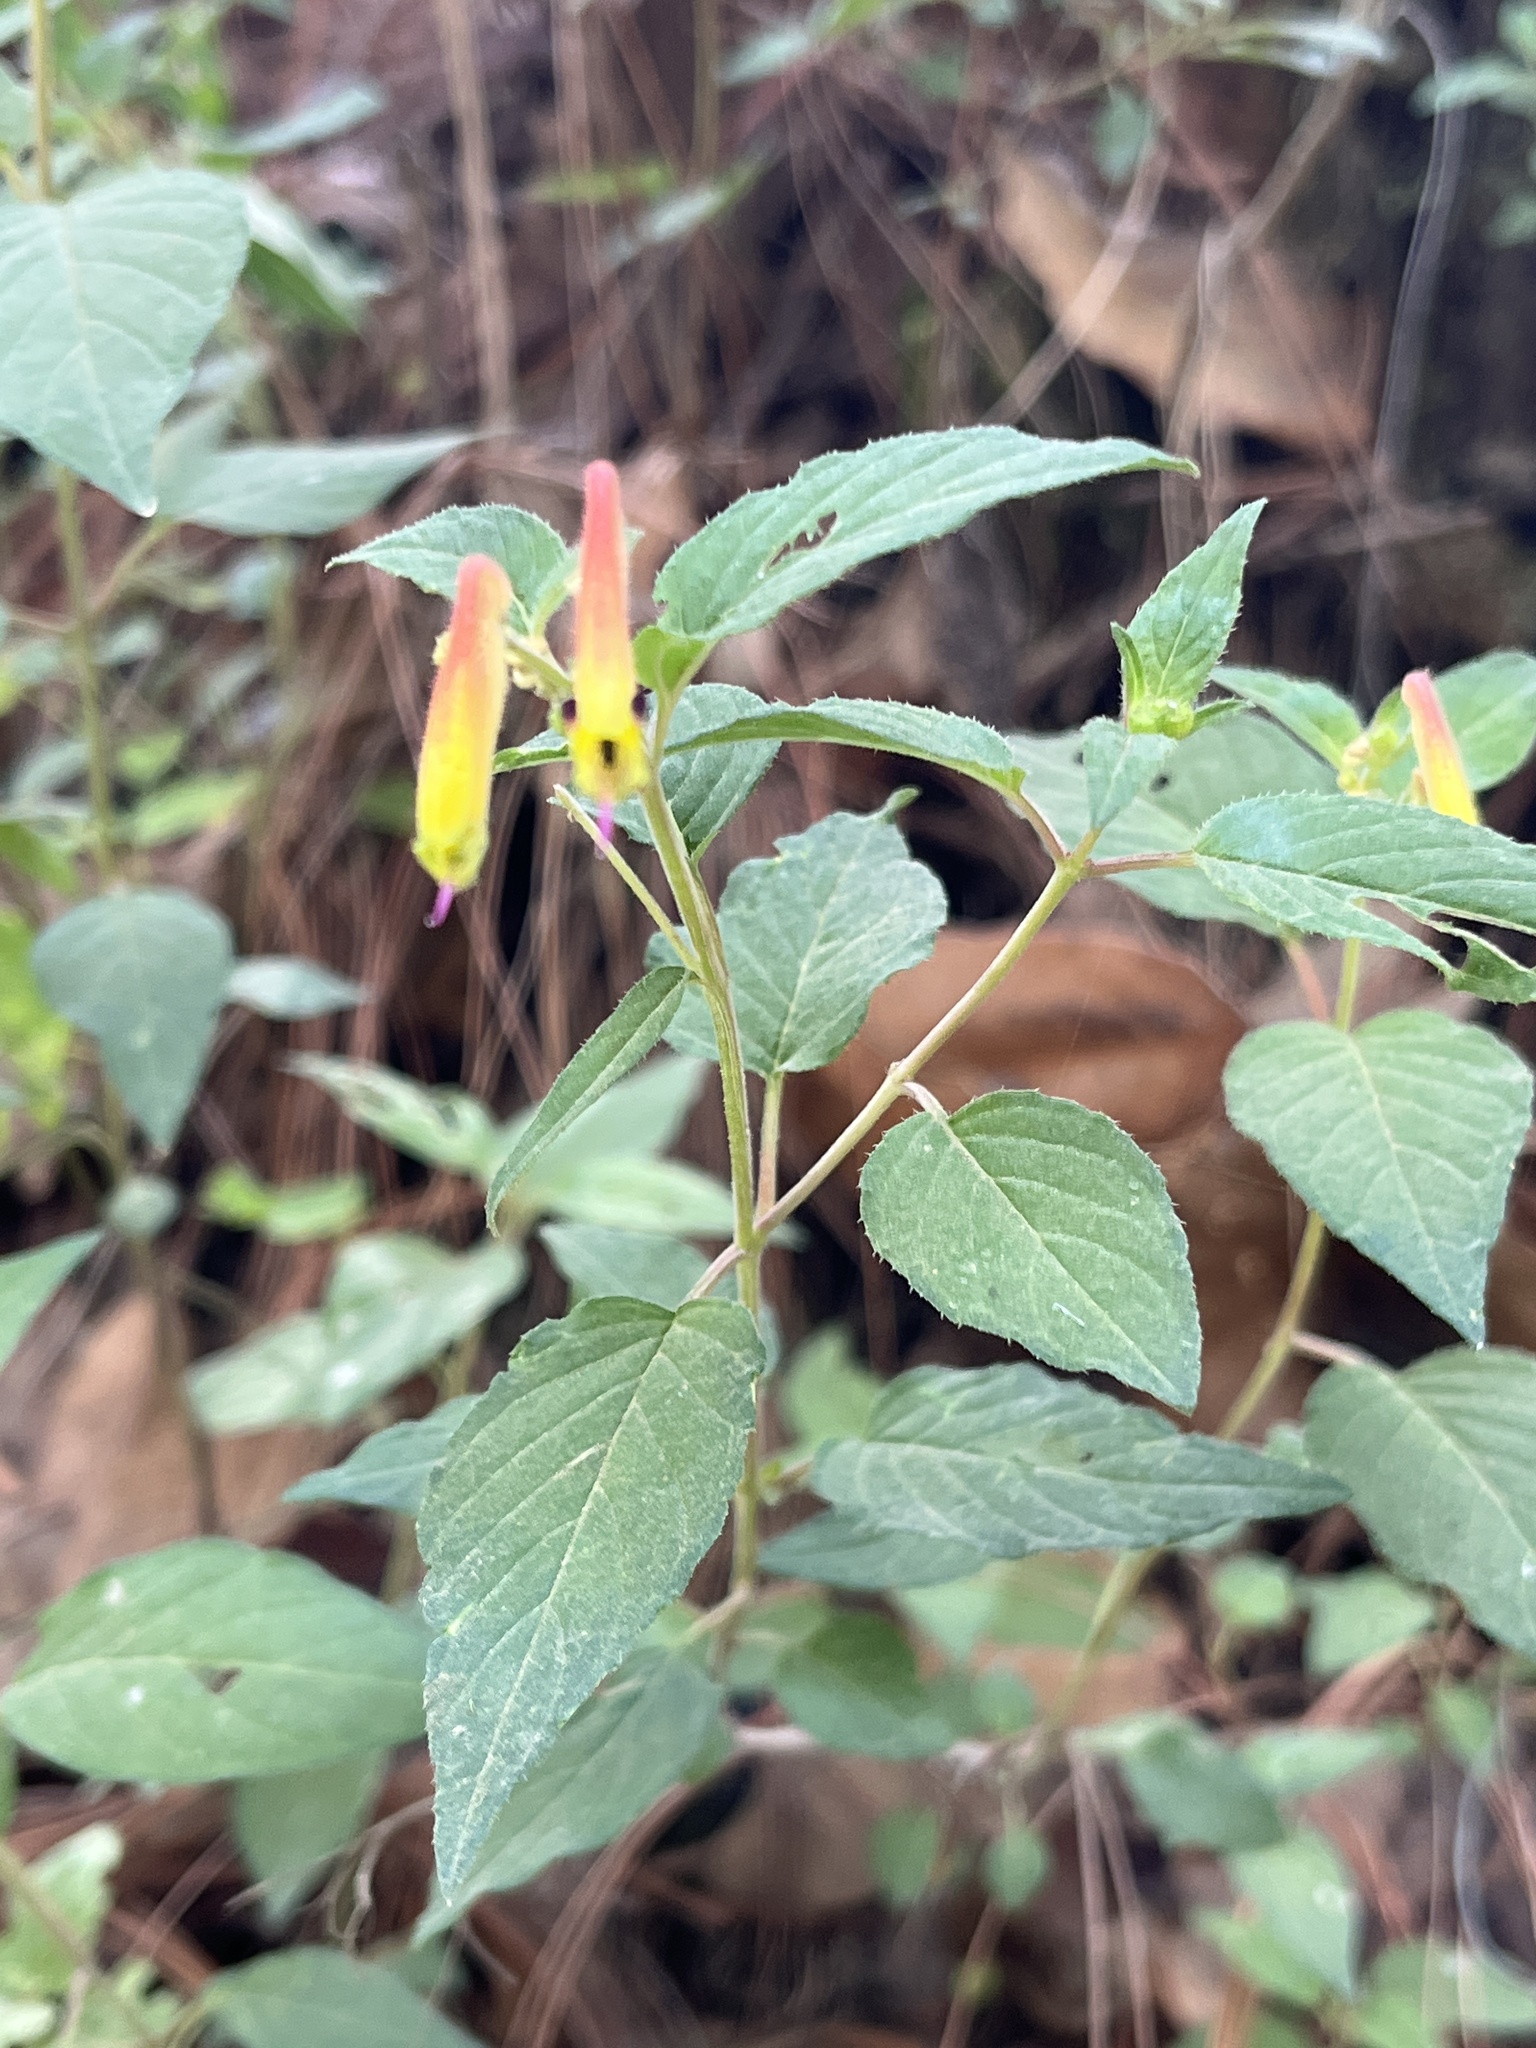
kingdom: Plantae
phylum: Tracheophyta
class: Magnoliopsida
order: Myrtales
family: Lythraceae
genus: Cuphea
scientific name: Cuphea cyanea
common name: Black-eyed cuphea
